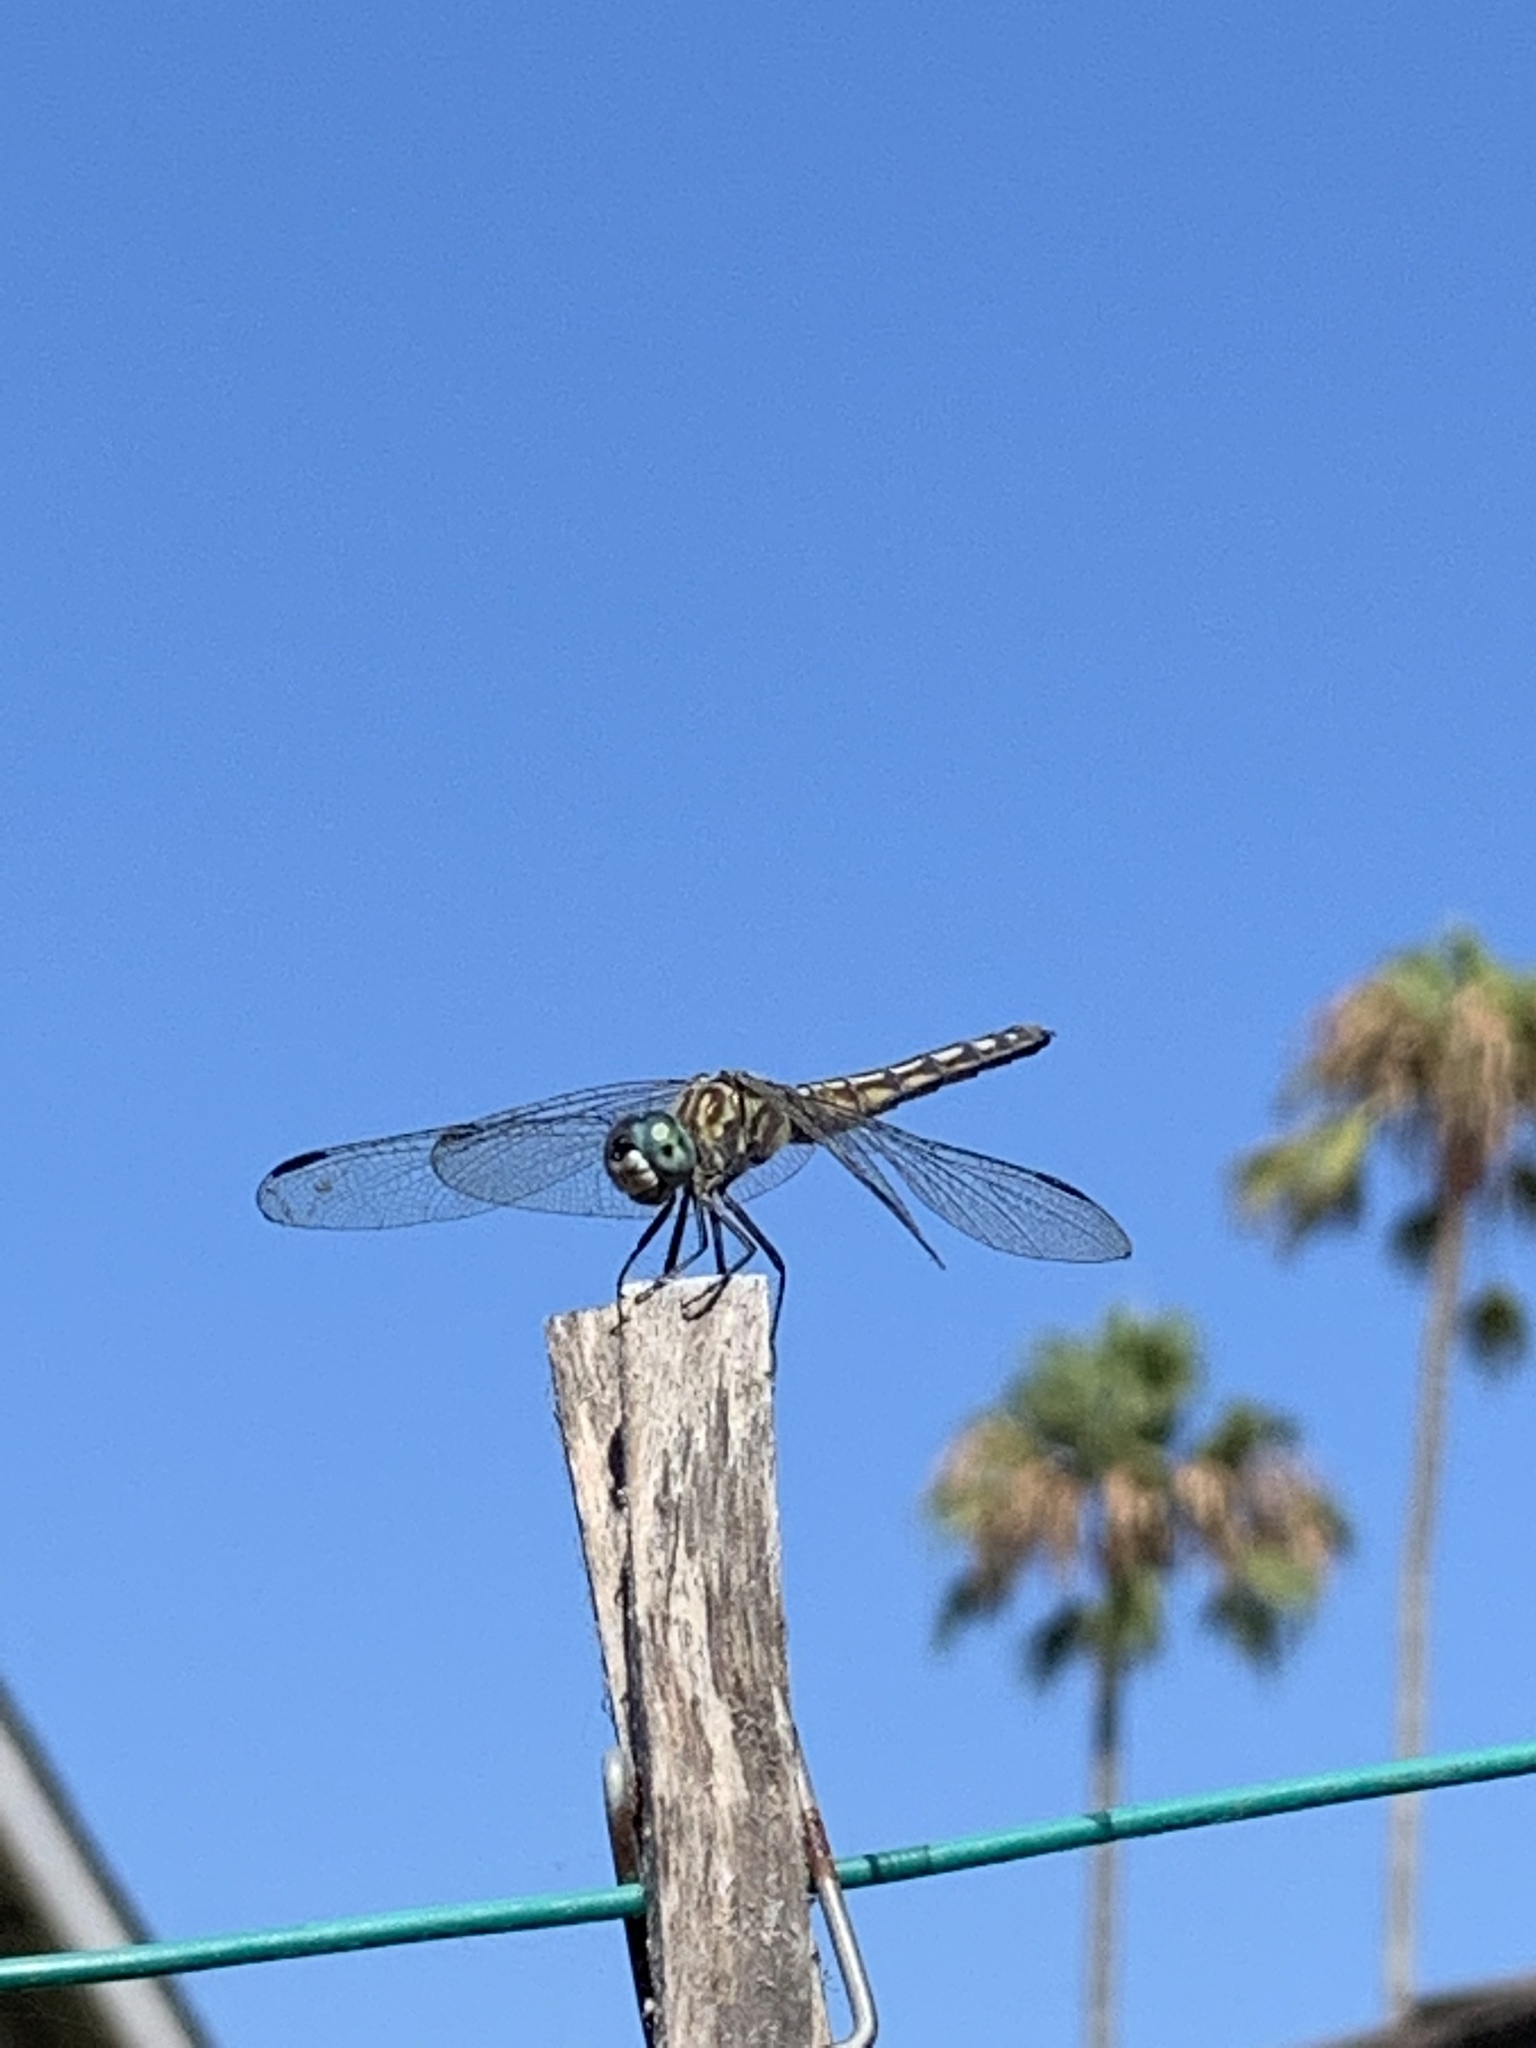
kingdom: Animalia
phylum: Arthropoda
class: Insecta
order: Odonata
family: Libellulidae
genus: Pachydiplax
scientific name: Pachydiplax longipennis
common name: Blue dasher
